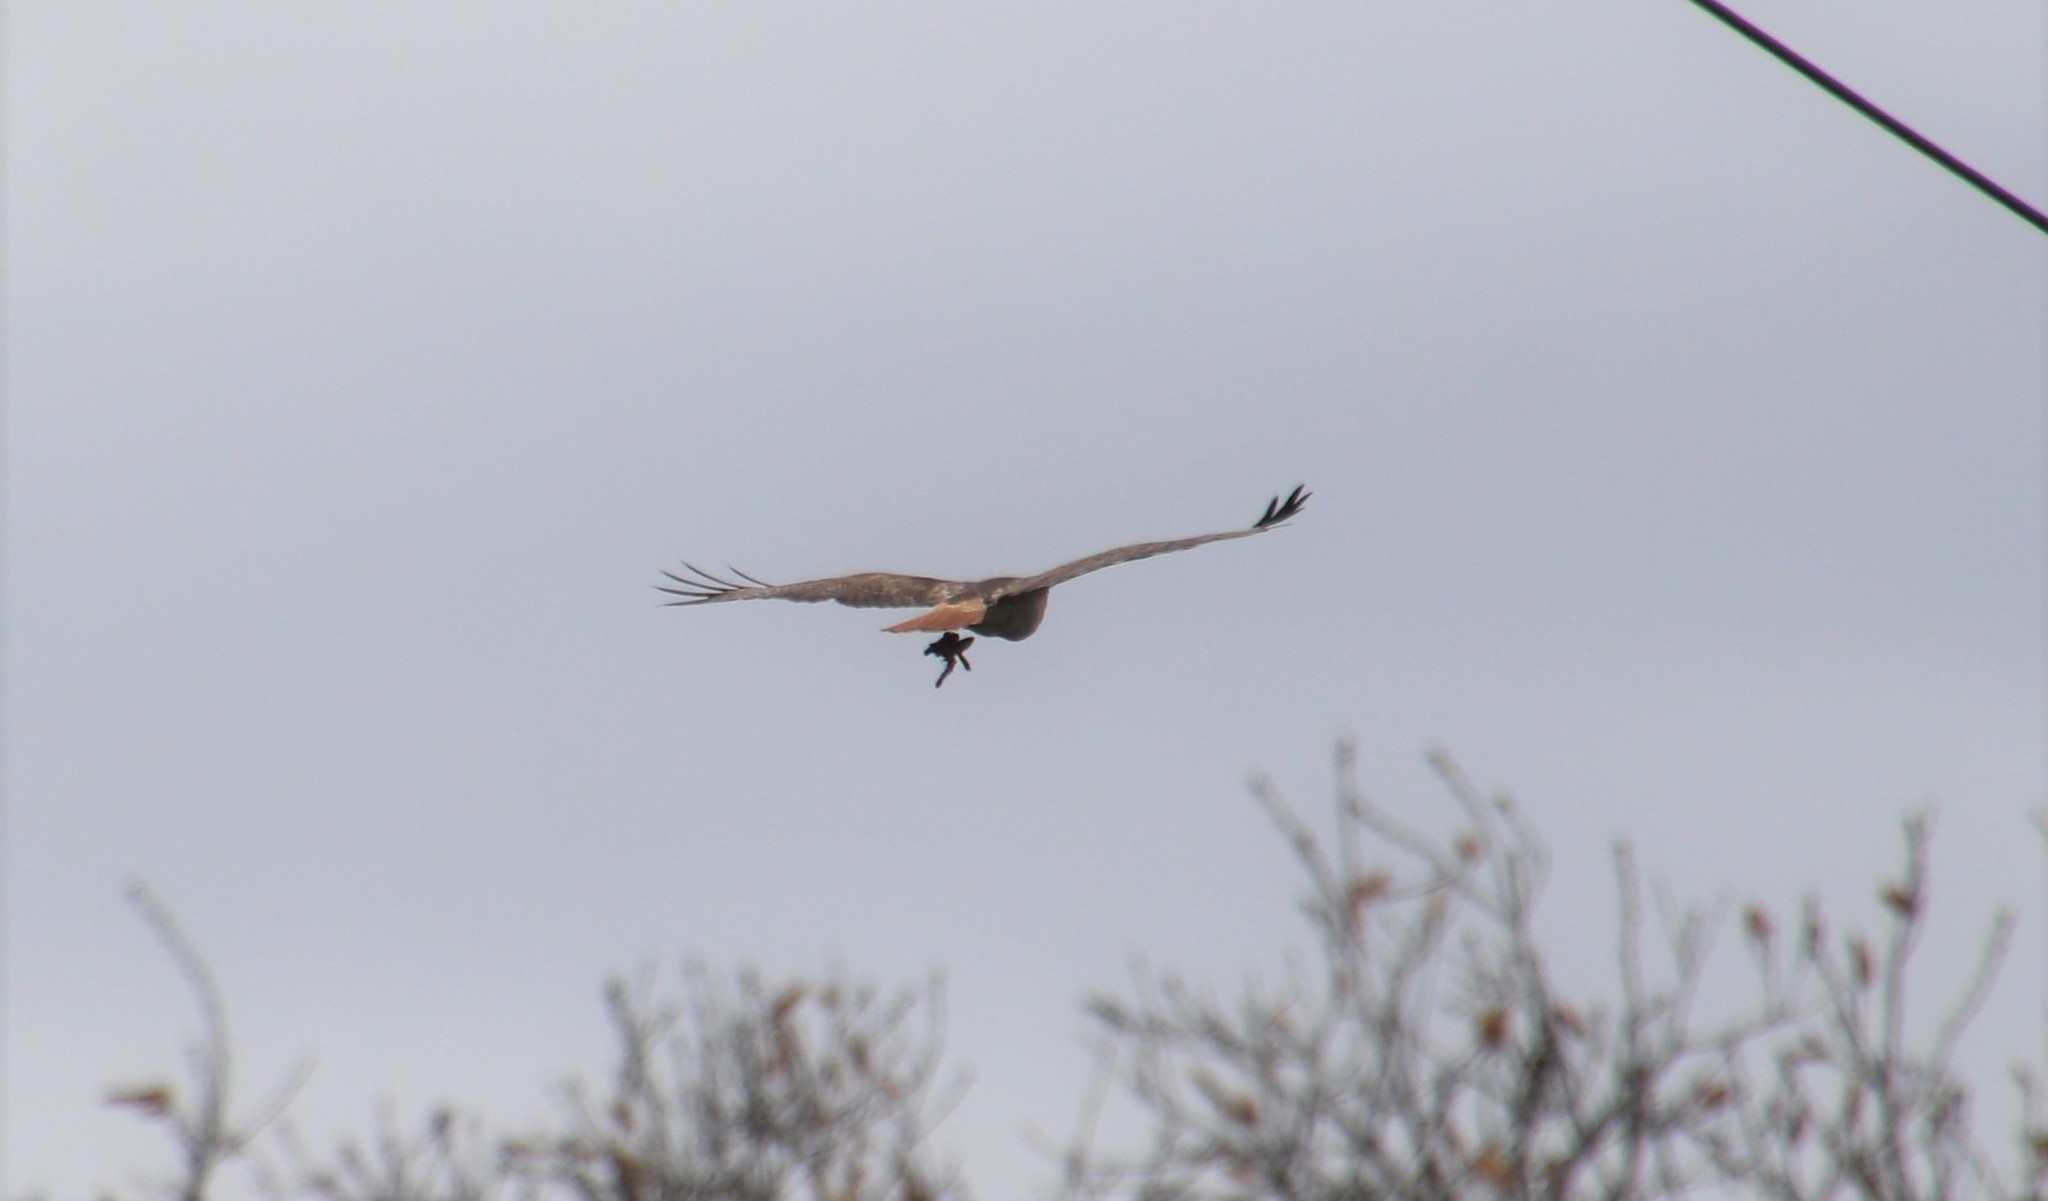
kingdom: Animalia
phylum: Chordata
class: Aves
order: Accipitriformes
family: Accipitridae
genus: Buteo
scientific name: Buteo jamaicensis
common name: Red-tailed hawk
